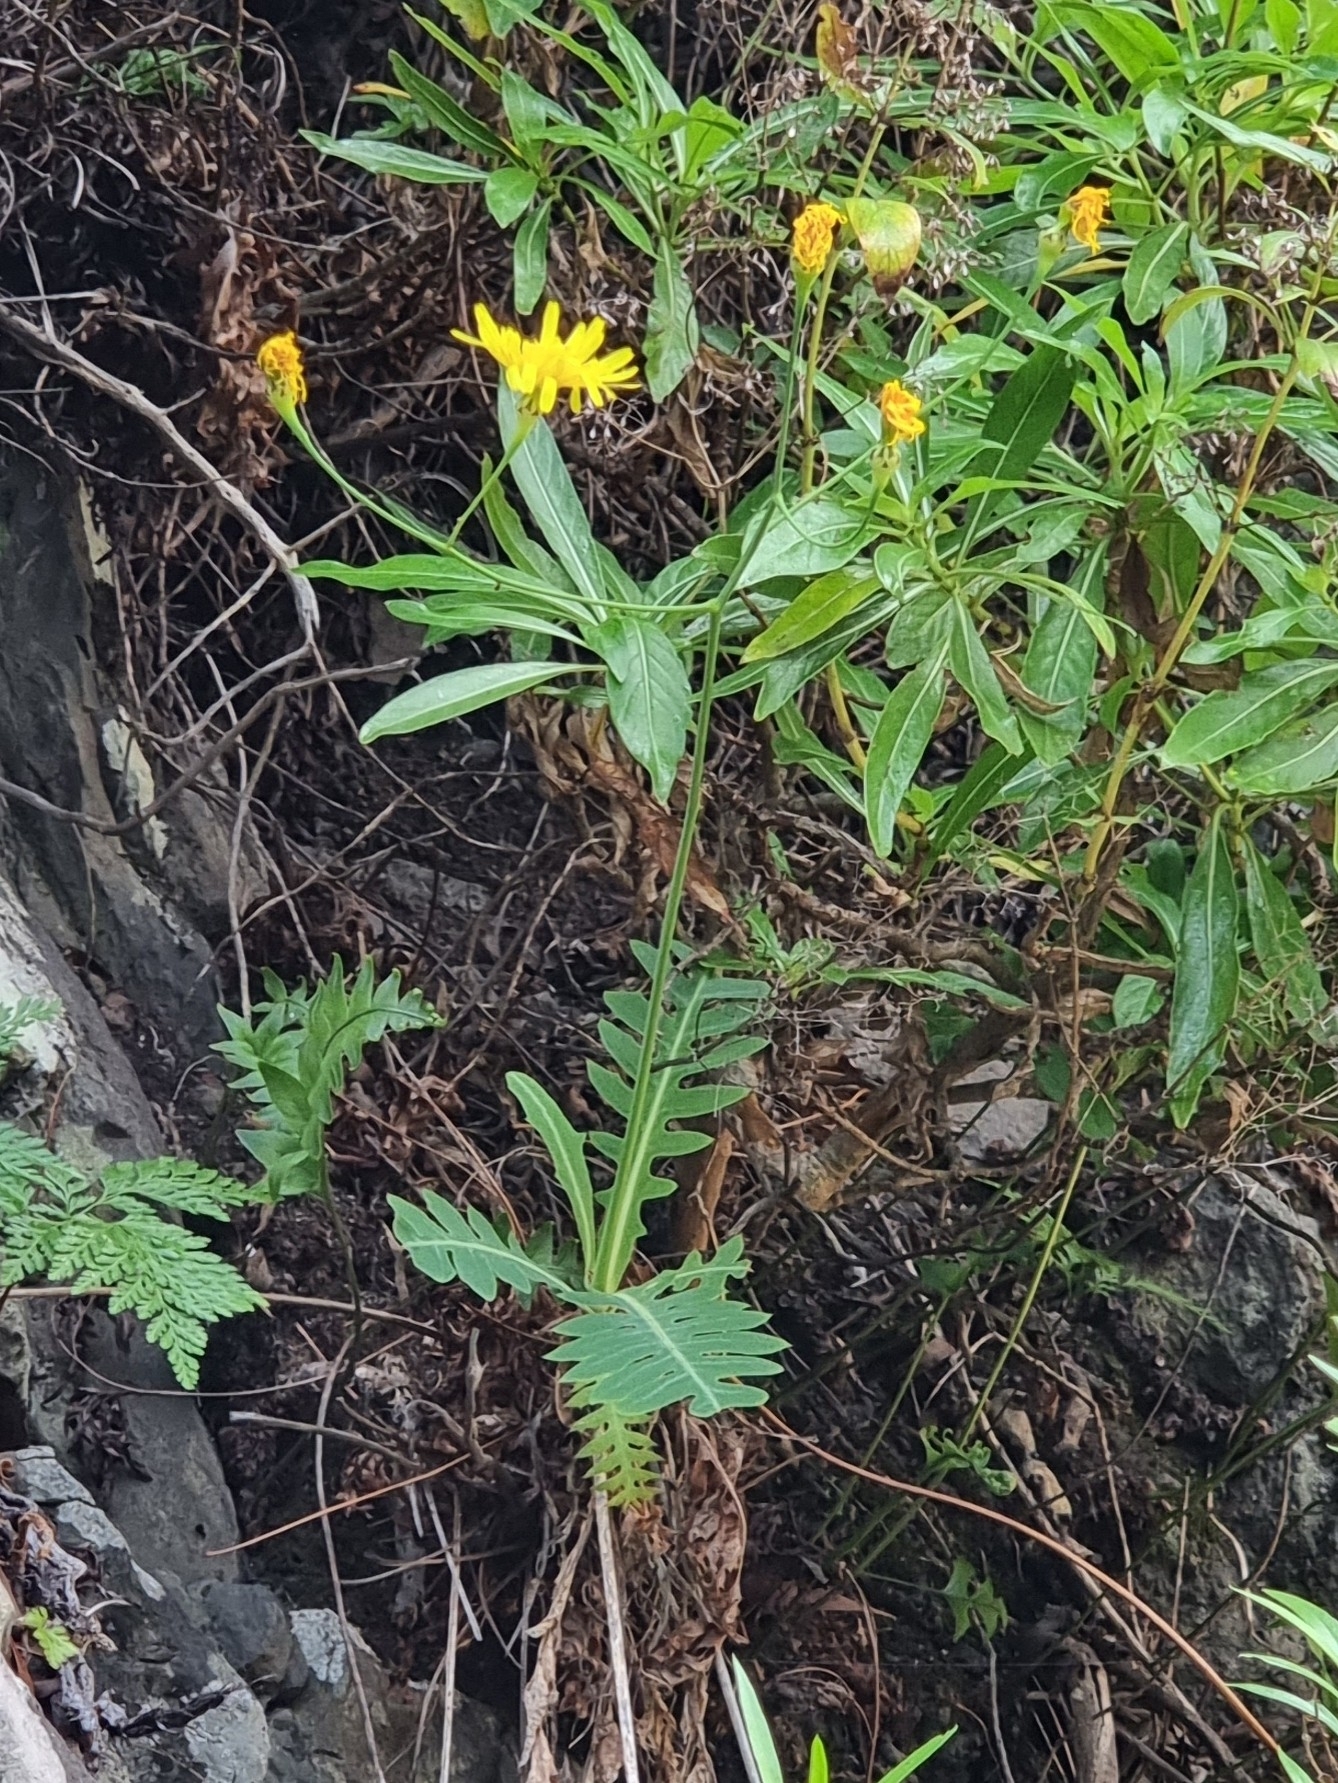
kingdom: Plantae
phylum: Tracheophyta
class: Magnoliopsida
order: Asterales
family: Asteraceae
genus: Sonchus
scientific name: Sonchus ustulatus
